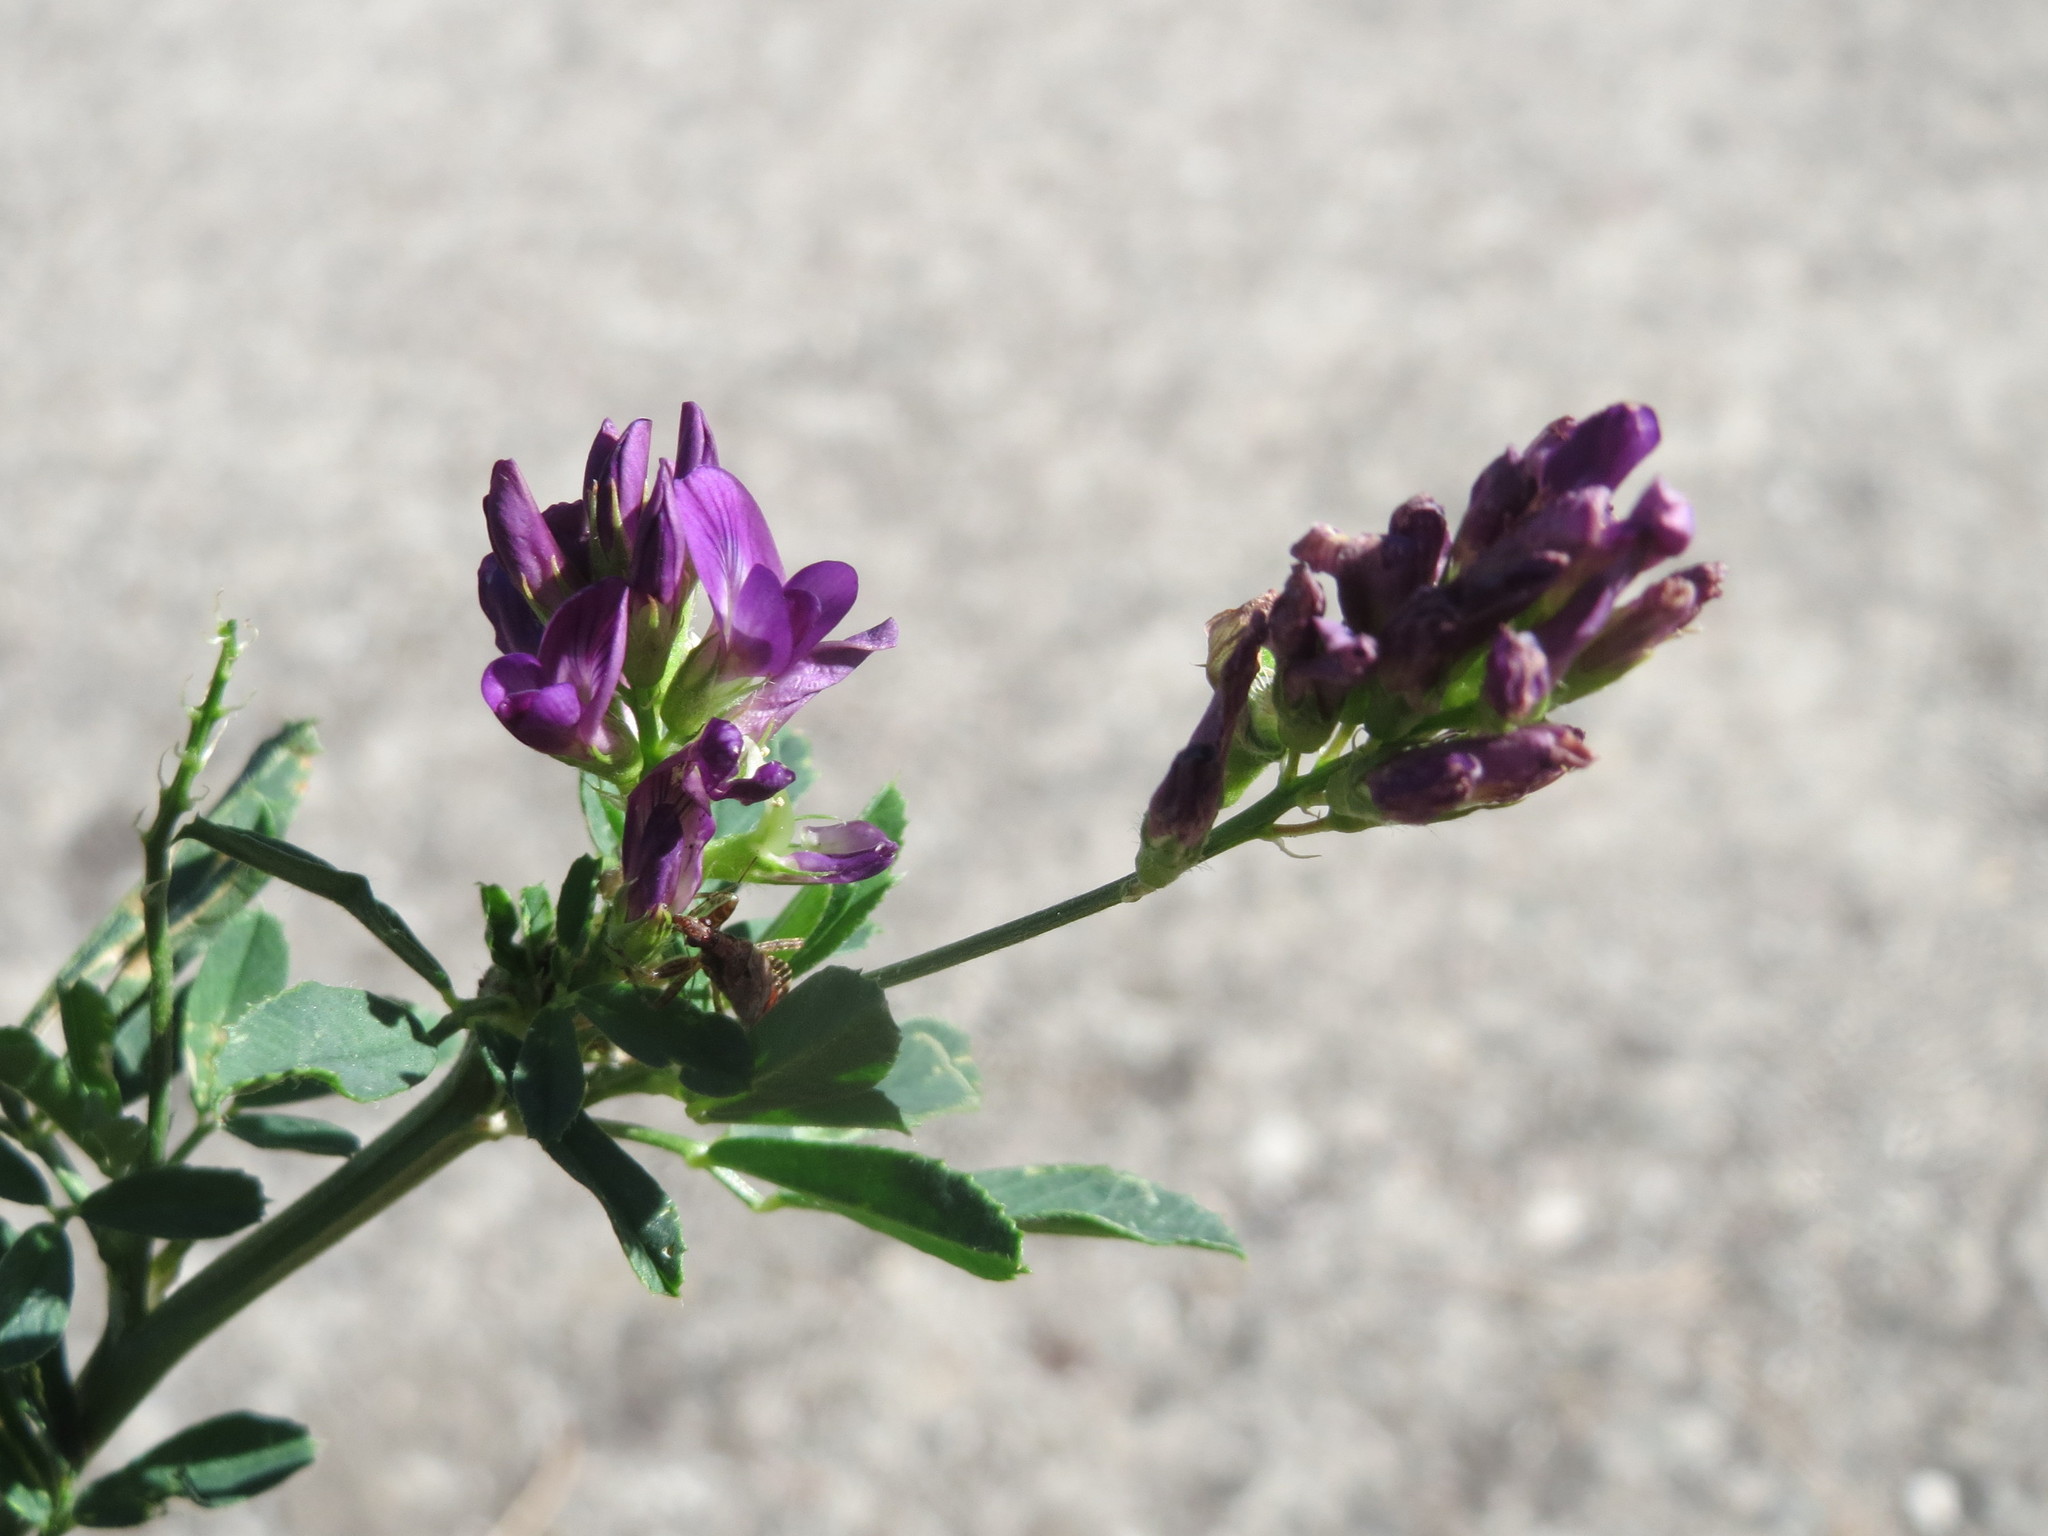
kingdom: Plantae
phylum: Tracheophyta
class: Magnoliopsida
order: Fabales
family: Fabaceae
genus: Medicago
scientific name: Medicago sativa
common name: Alfalfa
